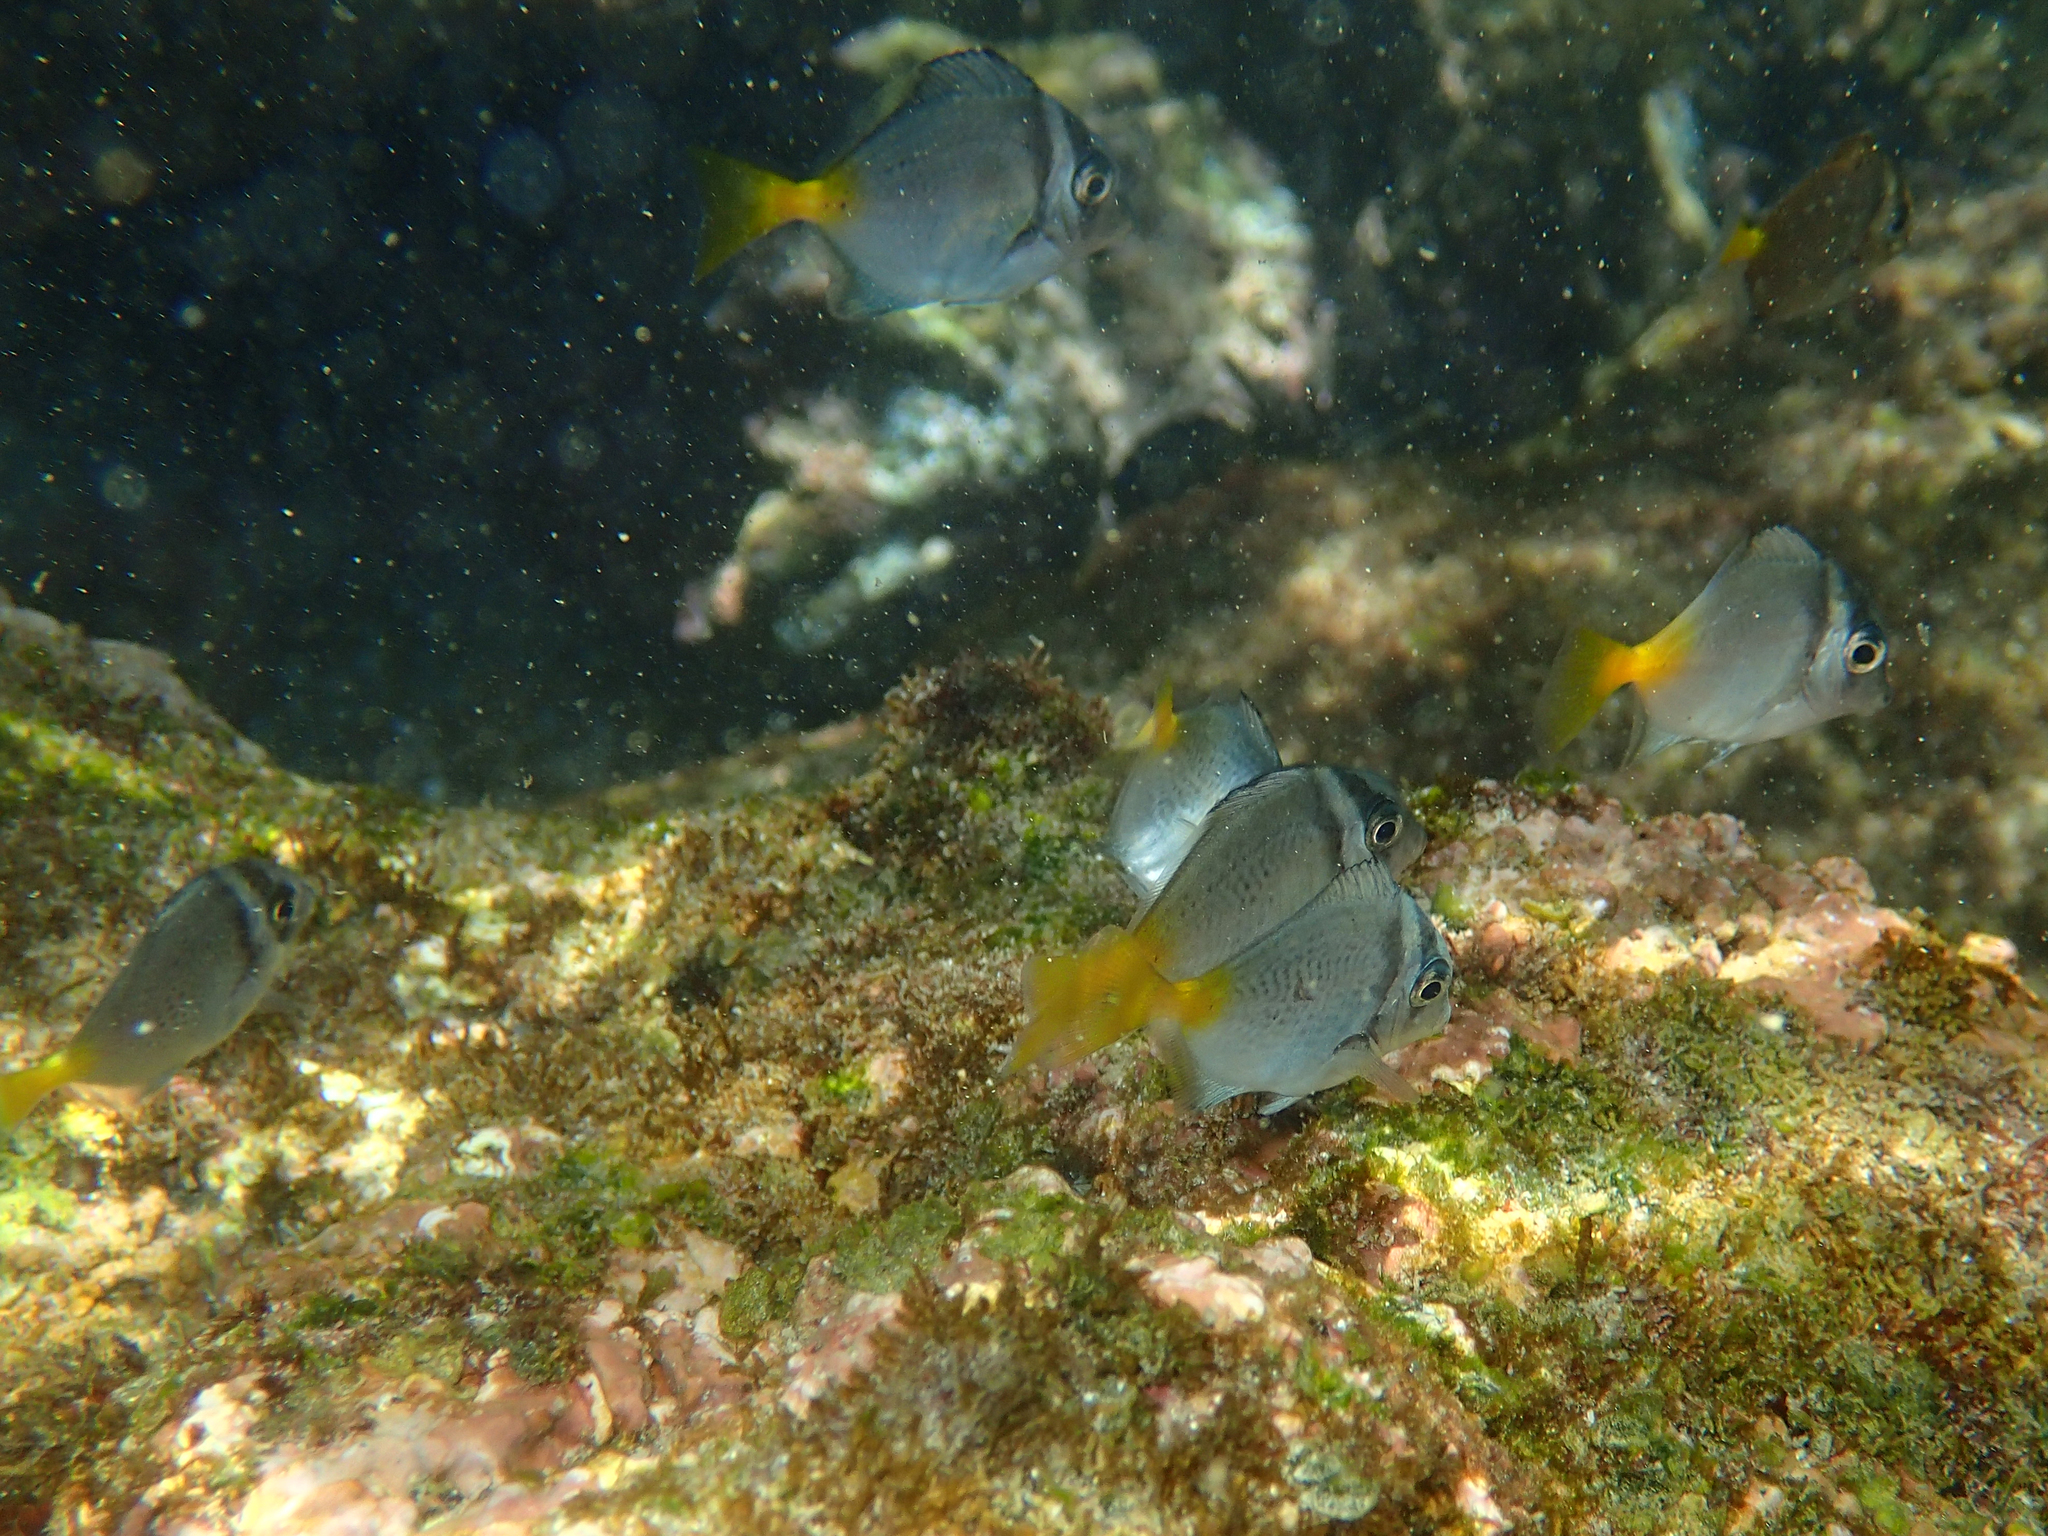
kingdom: Animalia
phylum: Chordata
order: Perciformes
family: Acanthuridae
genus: Prionurus
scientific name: Prionurus laticlavius
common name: Razor surgeonfish
